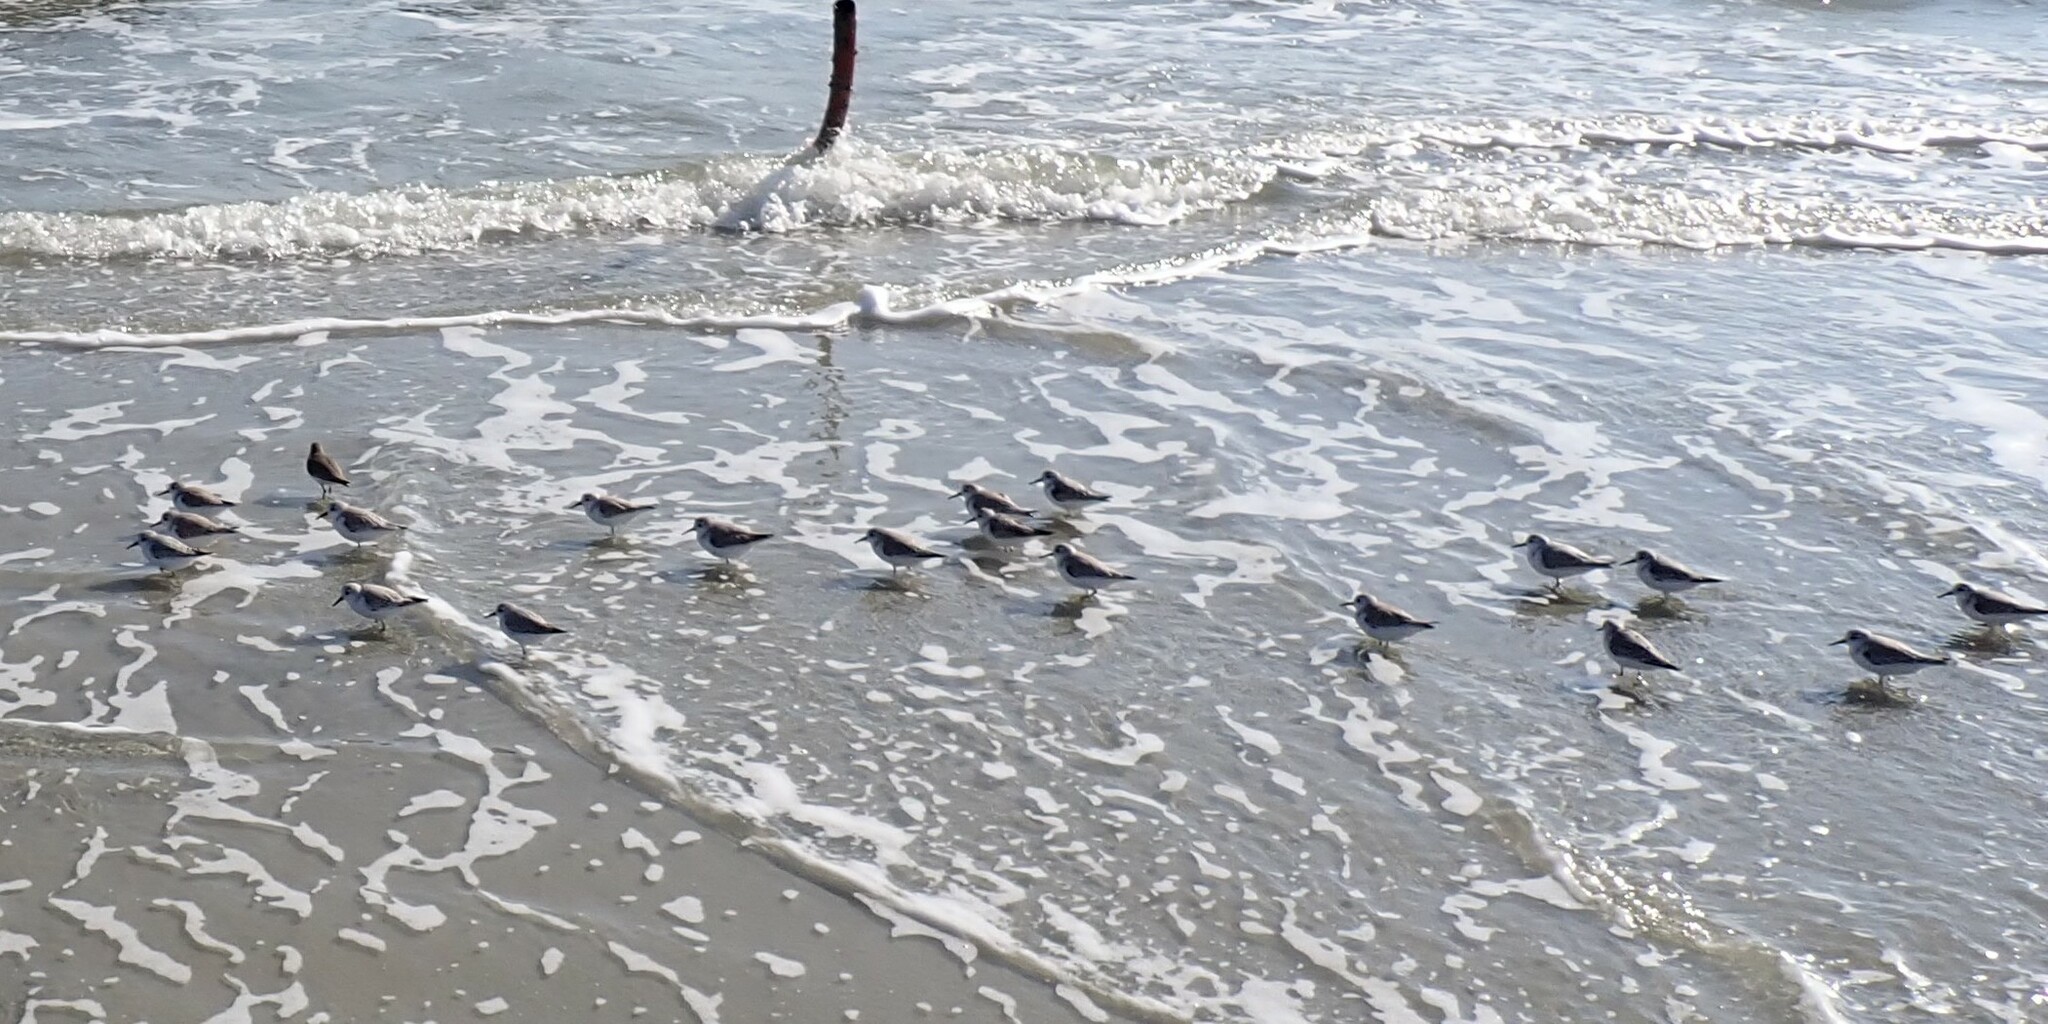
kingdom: Animalia
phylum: Chordata
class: Aves
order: Charadriiformes
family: Scolopacidae
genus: Calidris
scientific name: Calidris alba
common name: Sanderling
